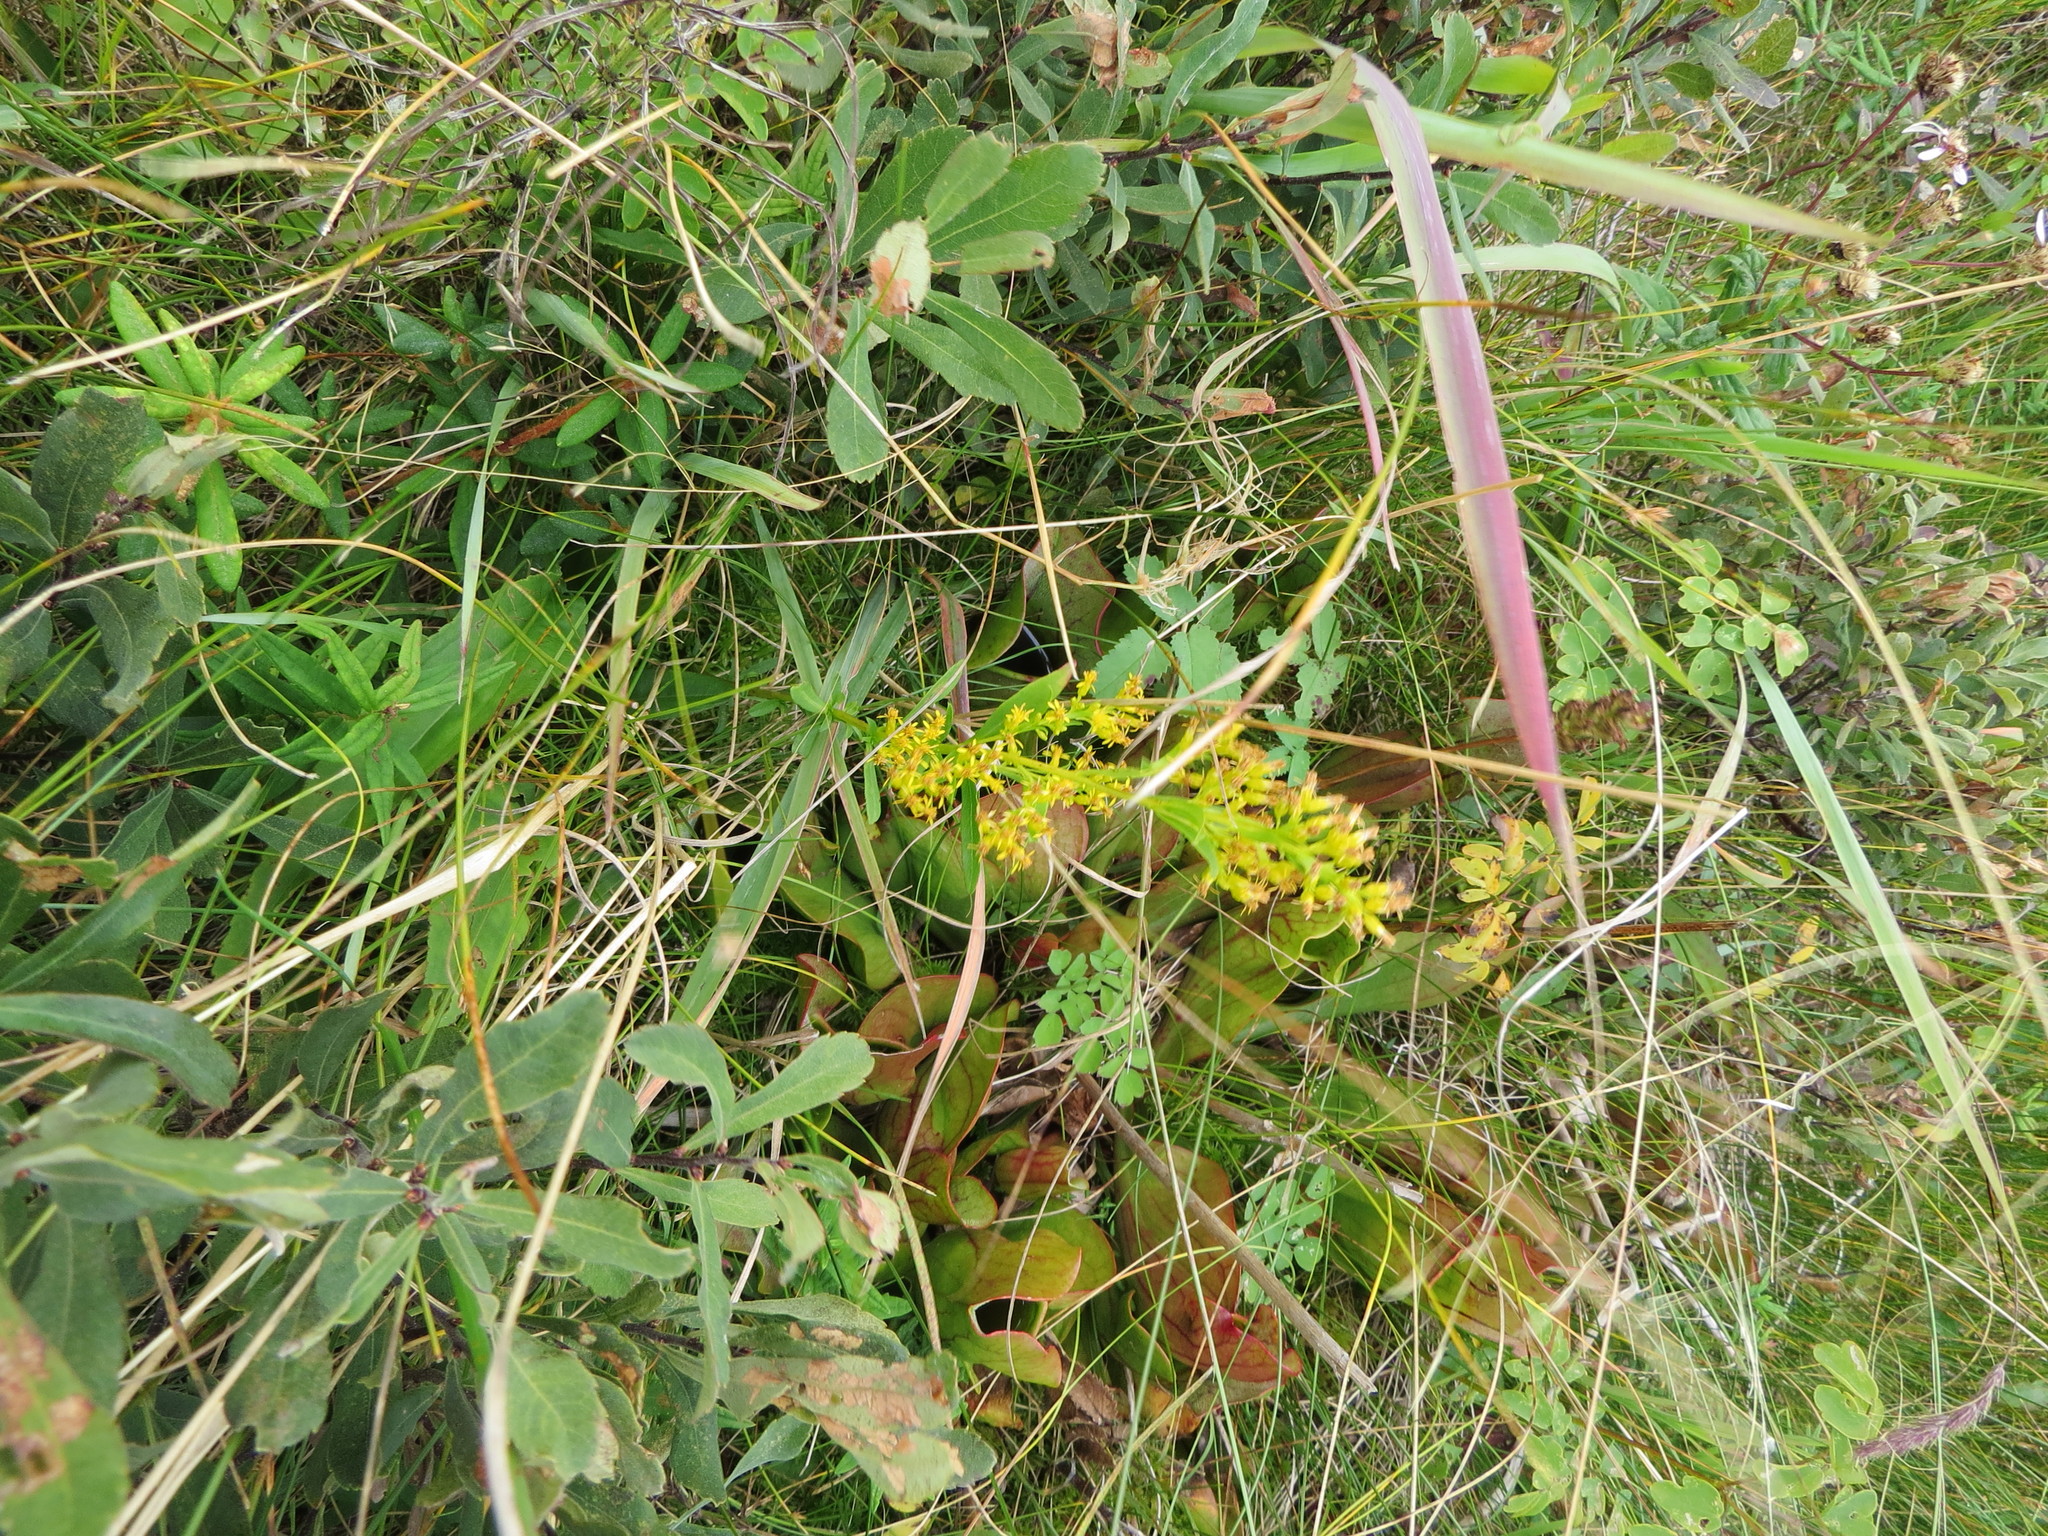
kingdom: Plantae
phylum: Tracheophyta
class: Magnoliopsida
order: Asterales
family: Asteraceae
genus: Solidago
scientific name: Solidago uliginosa
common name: Bog goldenrod
